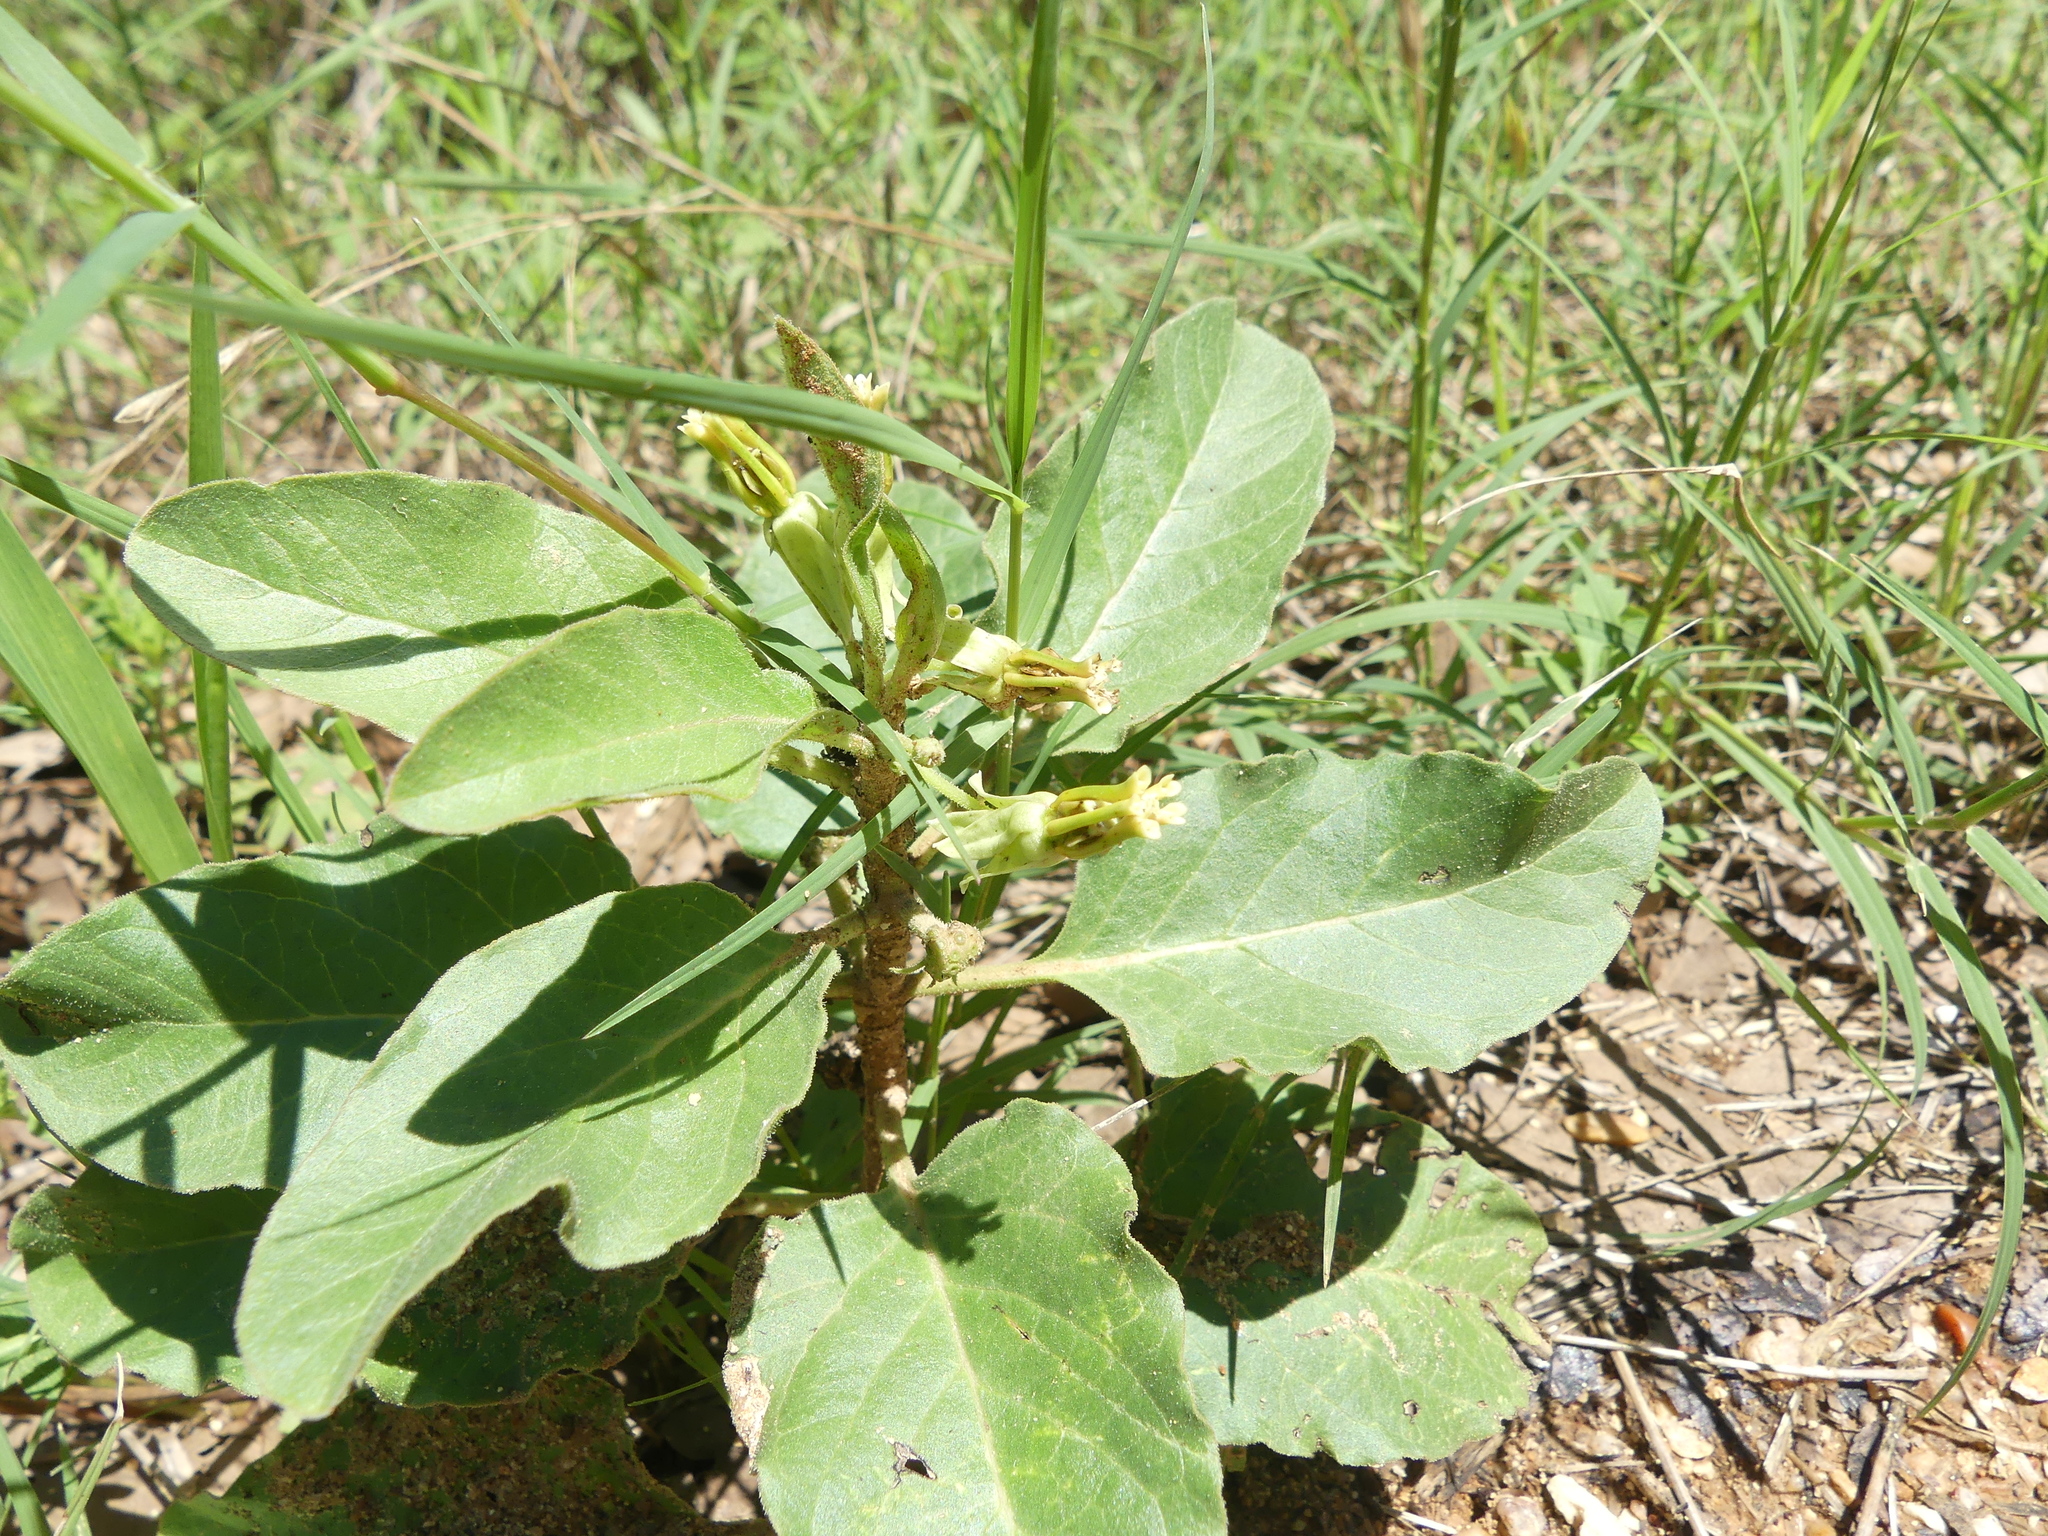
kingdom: Plantae
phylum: Tracheophyta
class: Magnoliopsida
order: Gentianales
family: Apocynaceae
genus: Asclepias
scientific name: Asclepias oenotheroides
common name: Zizotes milkweed
